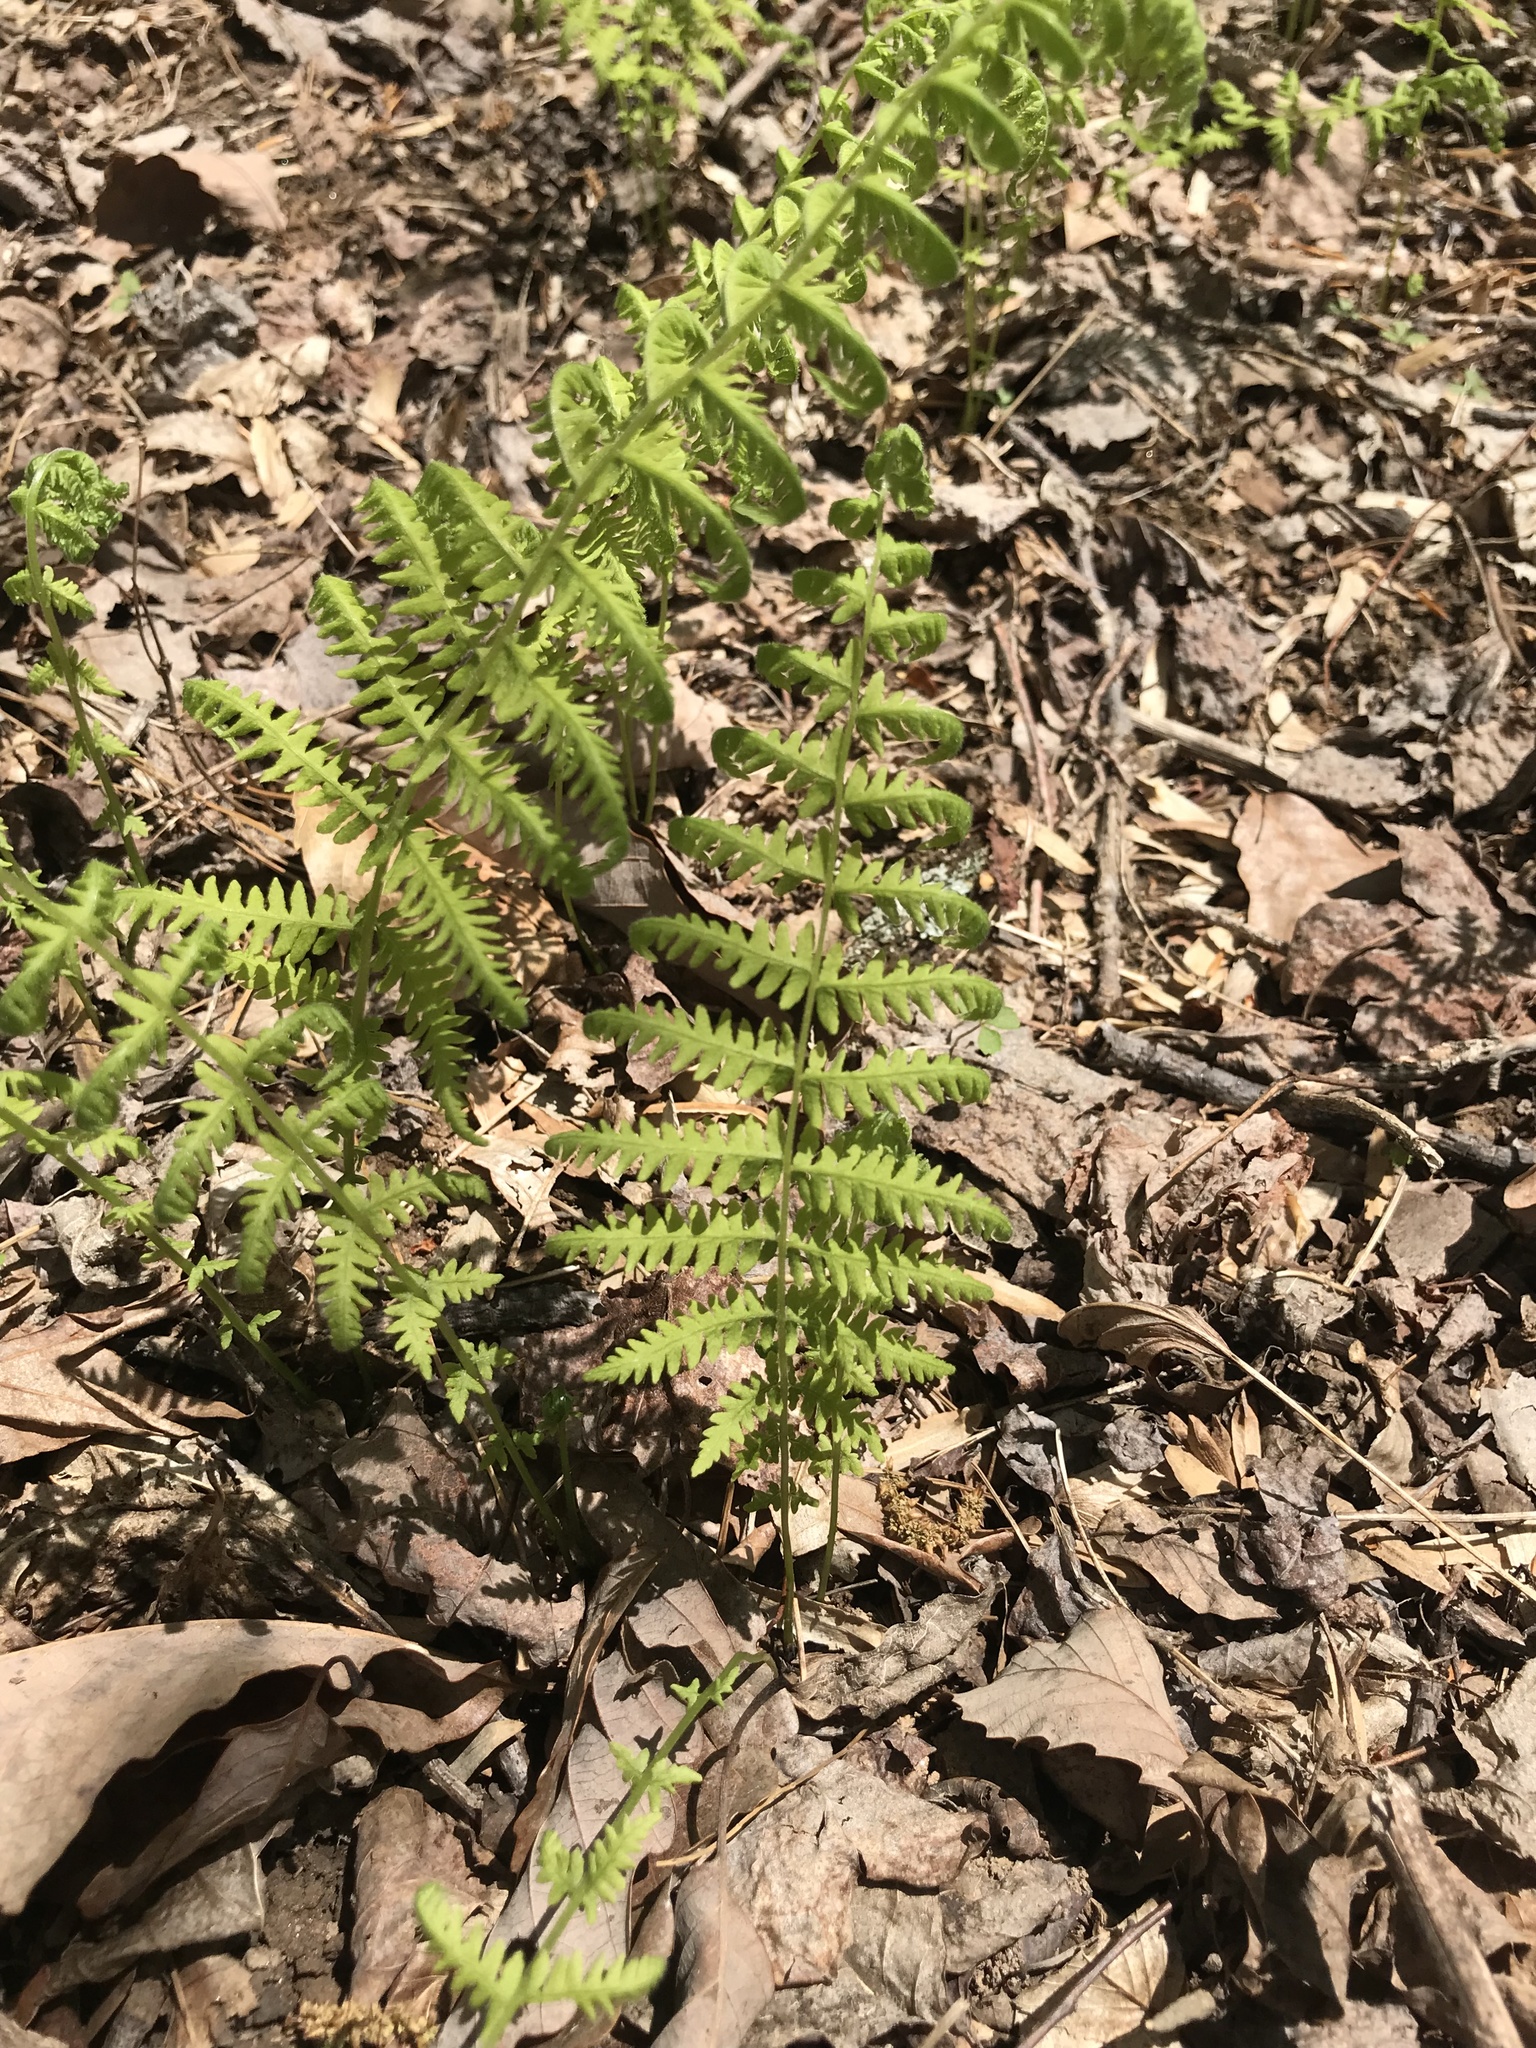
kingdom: Plantae
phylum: Tracheophyta
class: Polypodiopsida
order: Polypodiales
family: Thelypteridaceae
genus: Amauropelta
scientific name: Amauropelta noveboracensis
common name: New york fern
